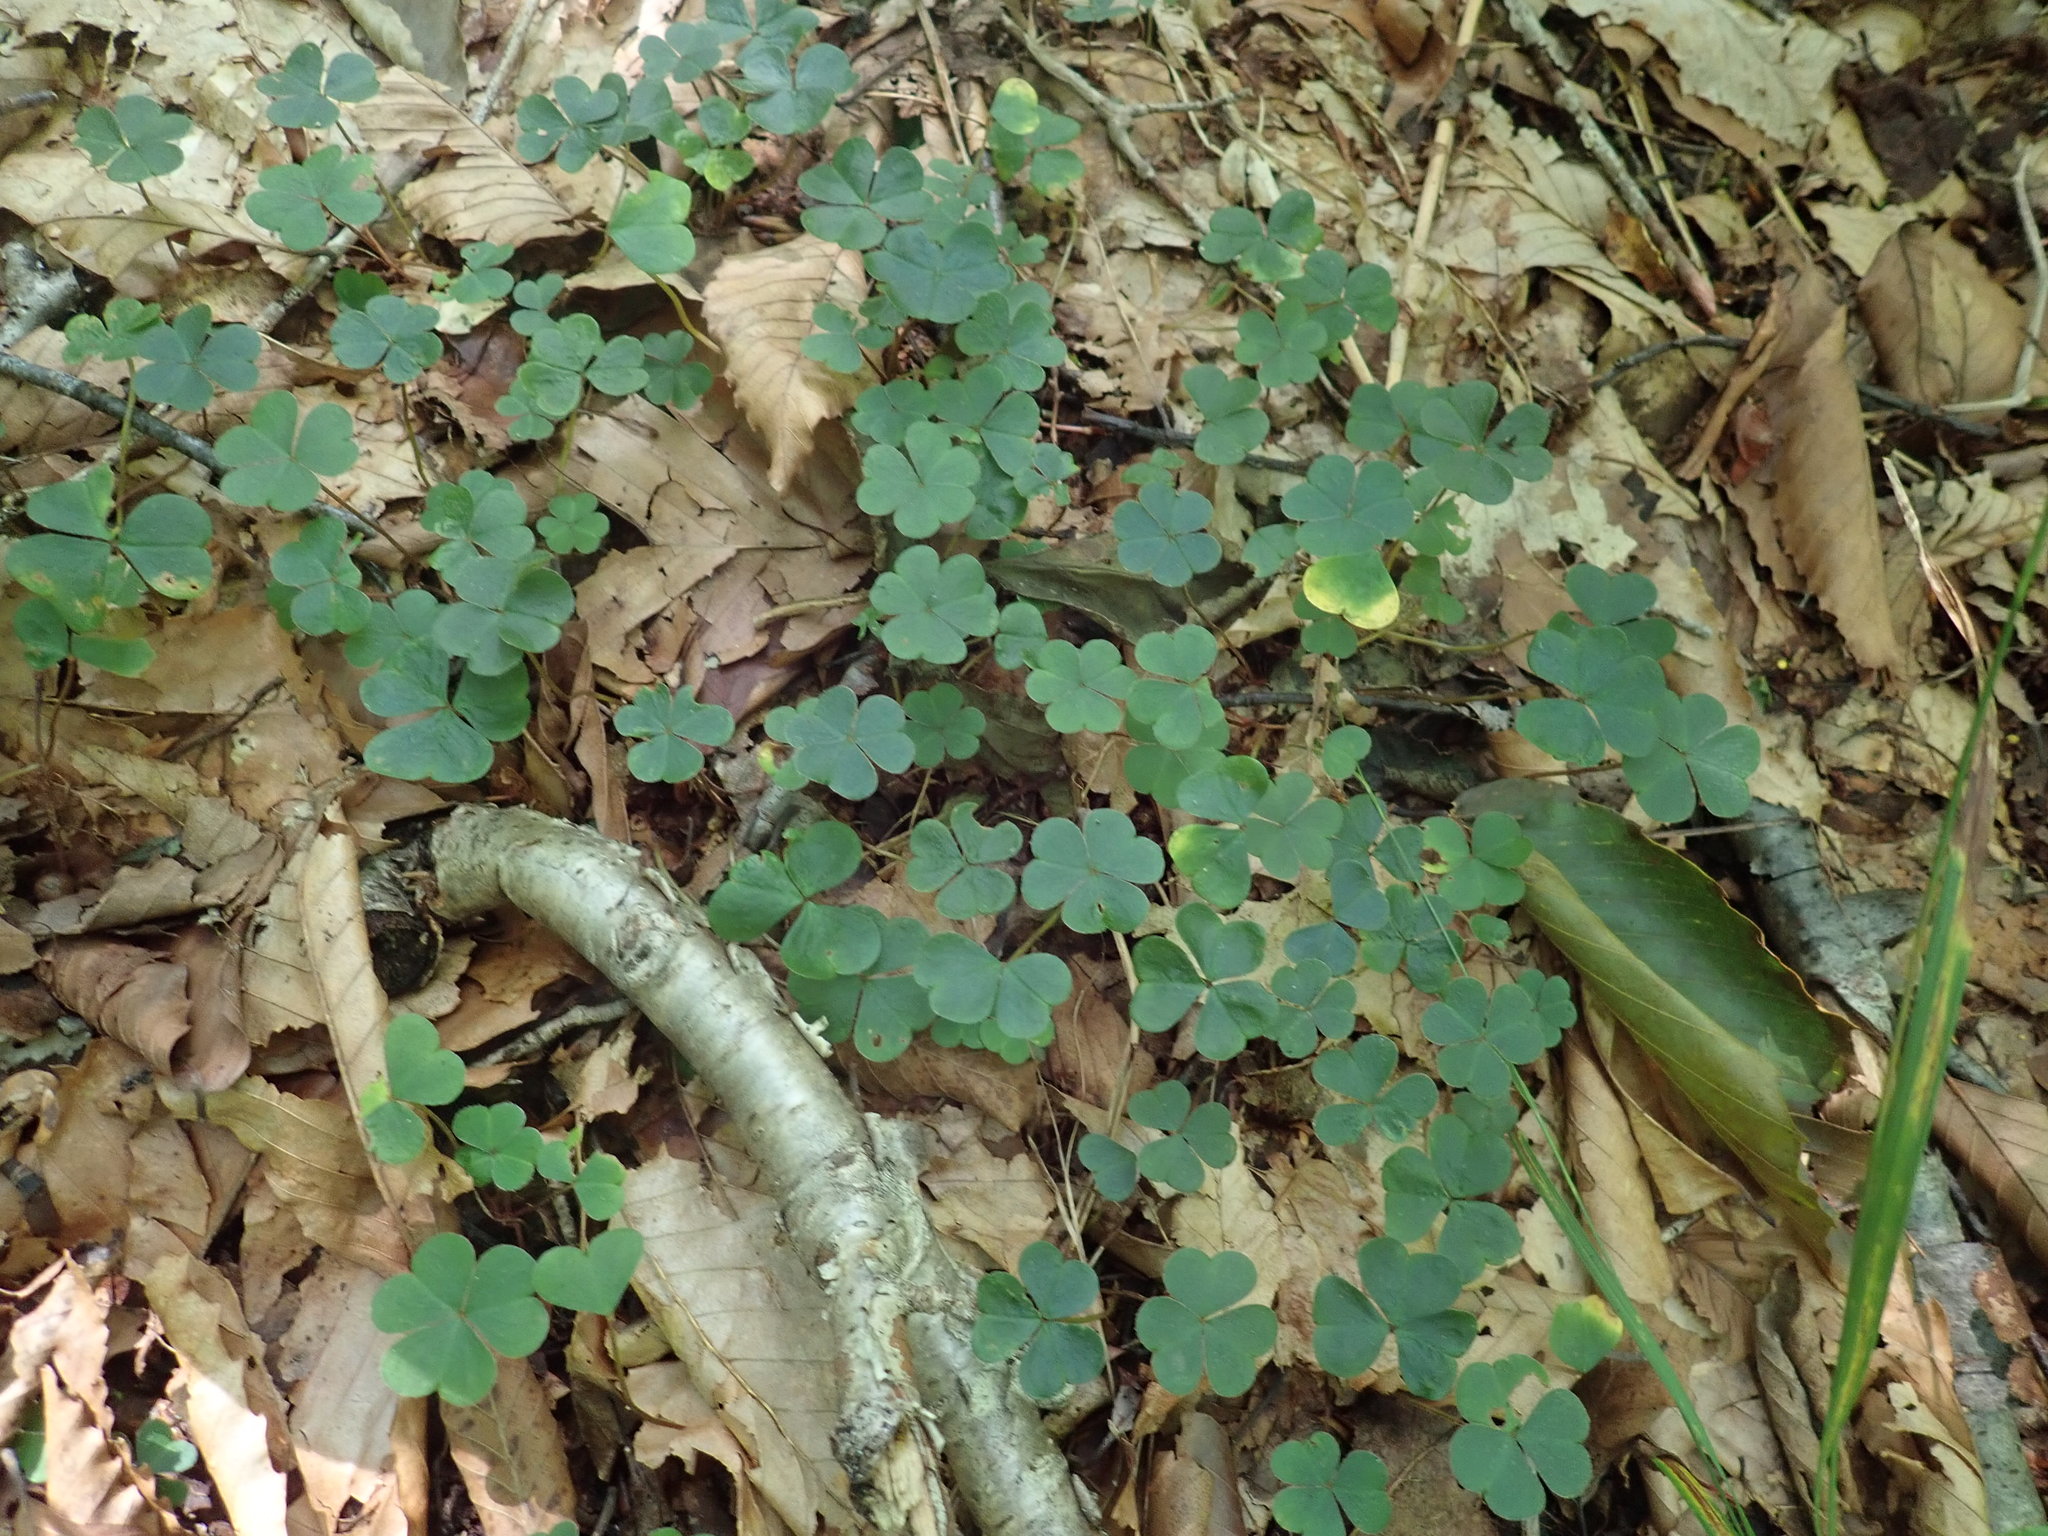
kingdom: Plantae
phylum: Tracheophyta
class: Magnoliopsida
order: Oxalidales
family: Oxalidaceae
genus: Oxalis
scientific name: Oxalis montana
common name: American wood-sorrel
